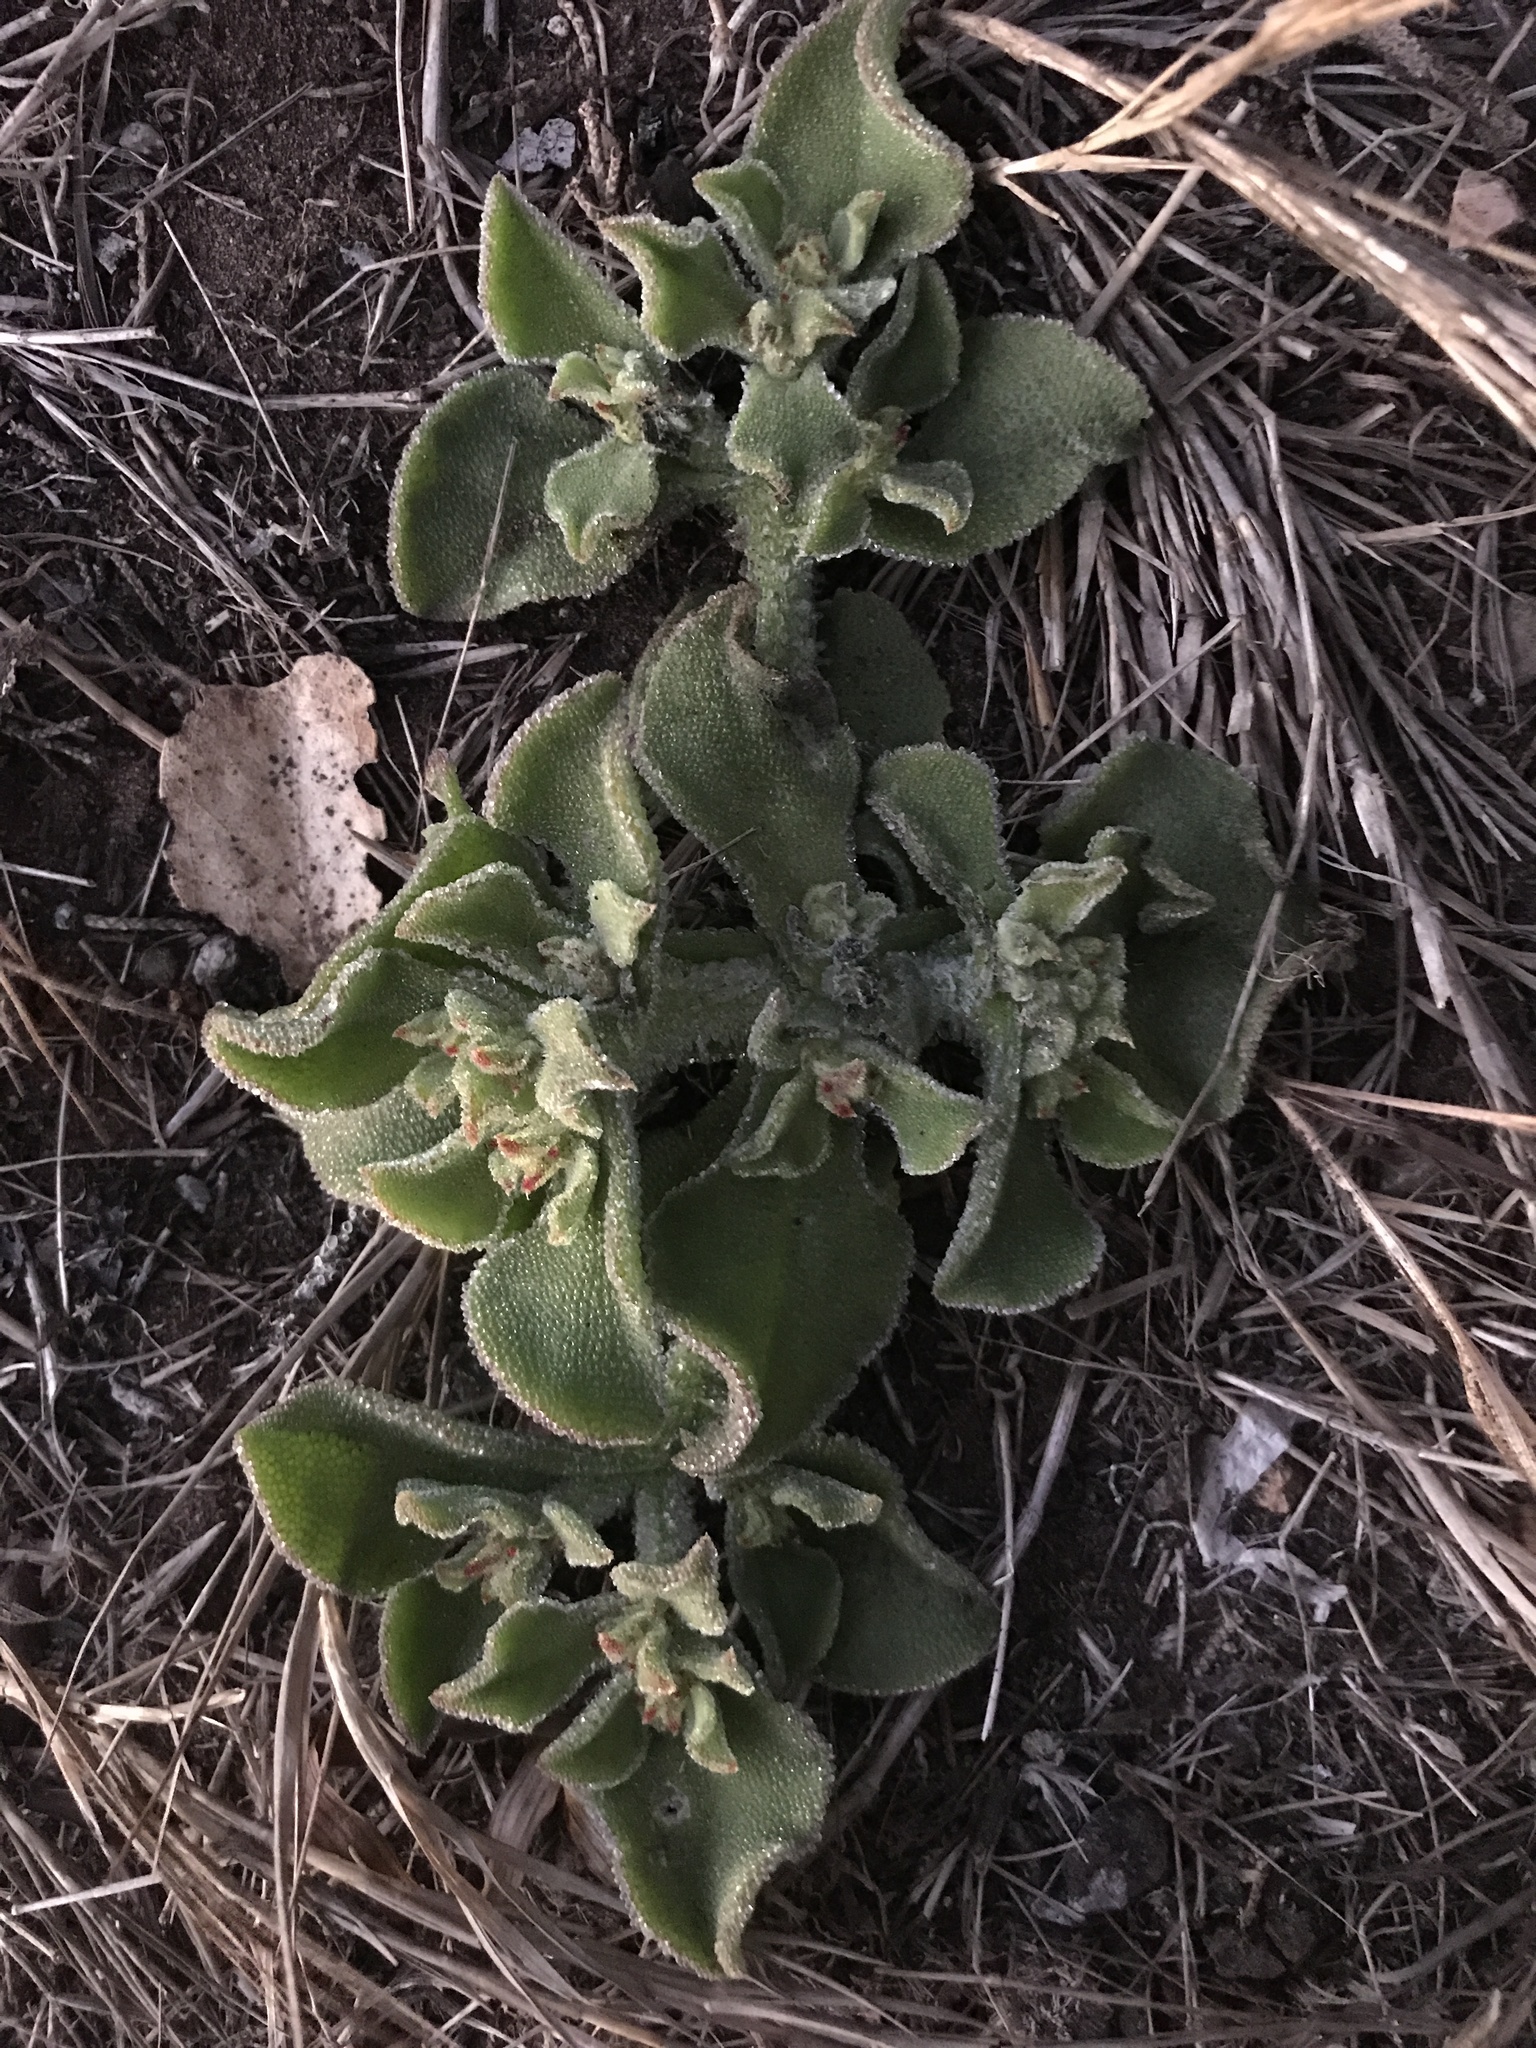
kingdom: Plantae
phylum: Tracheophyta
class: Magnoliopsida
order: Caryophyllales
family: Aizoaceae
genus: Mesembryanthemum
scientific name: Mesembryanthemum crystallinum
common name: Common iceplant
